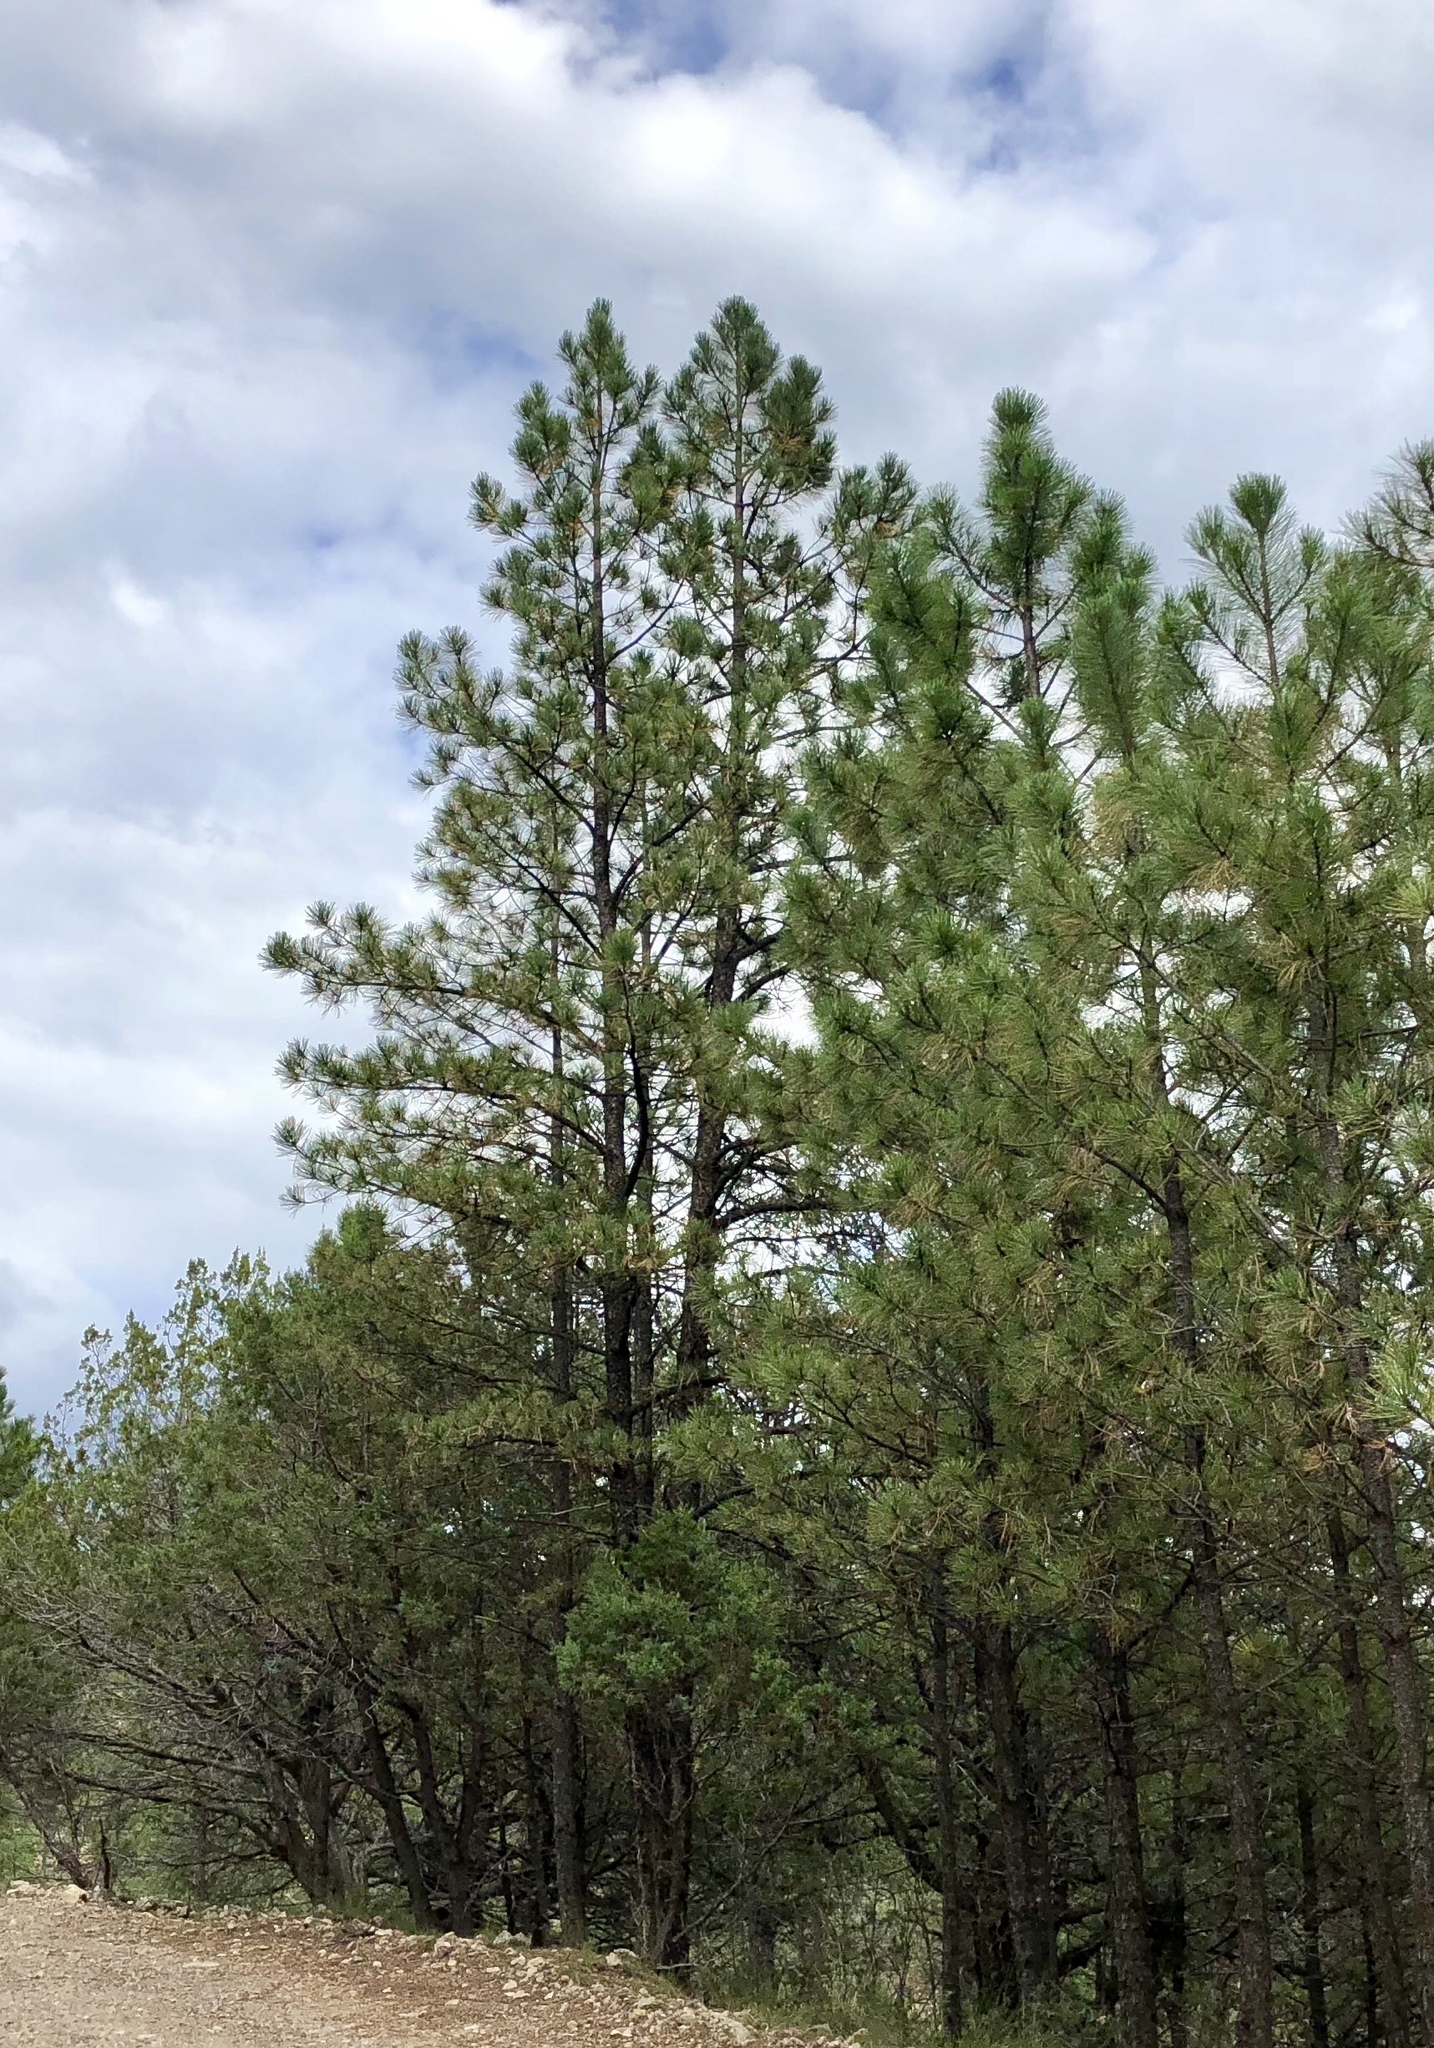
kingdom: Plantae
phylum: Tracheophyta
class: Pinopsida
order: Pinales
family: Pinaceae
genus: Pinus
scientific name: Pinus ponderosa
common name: Western yellow-pine
